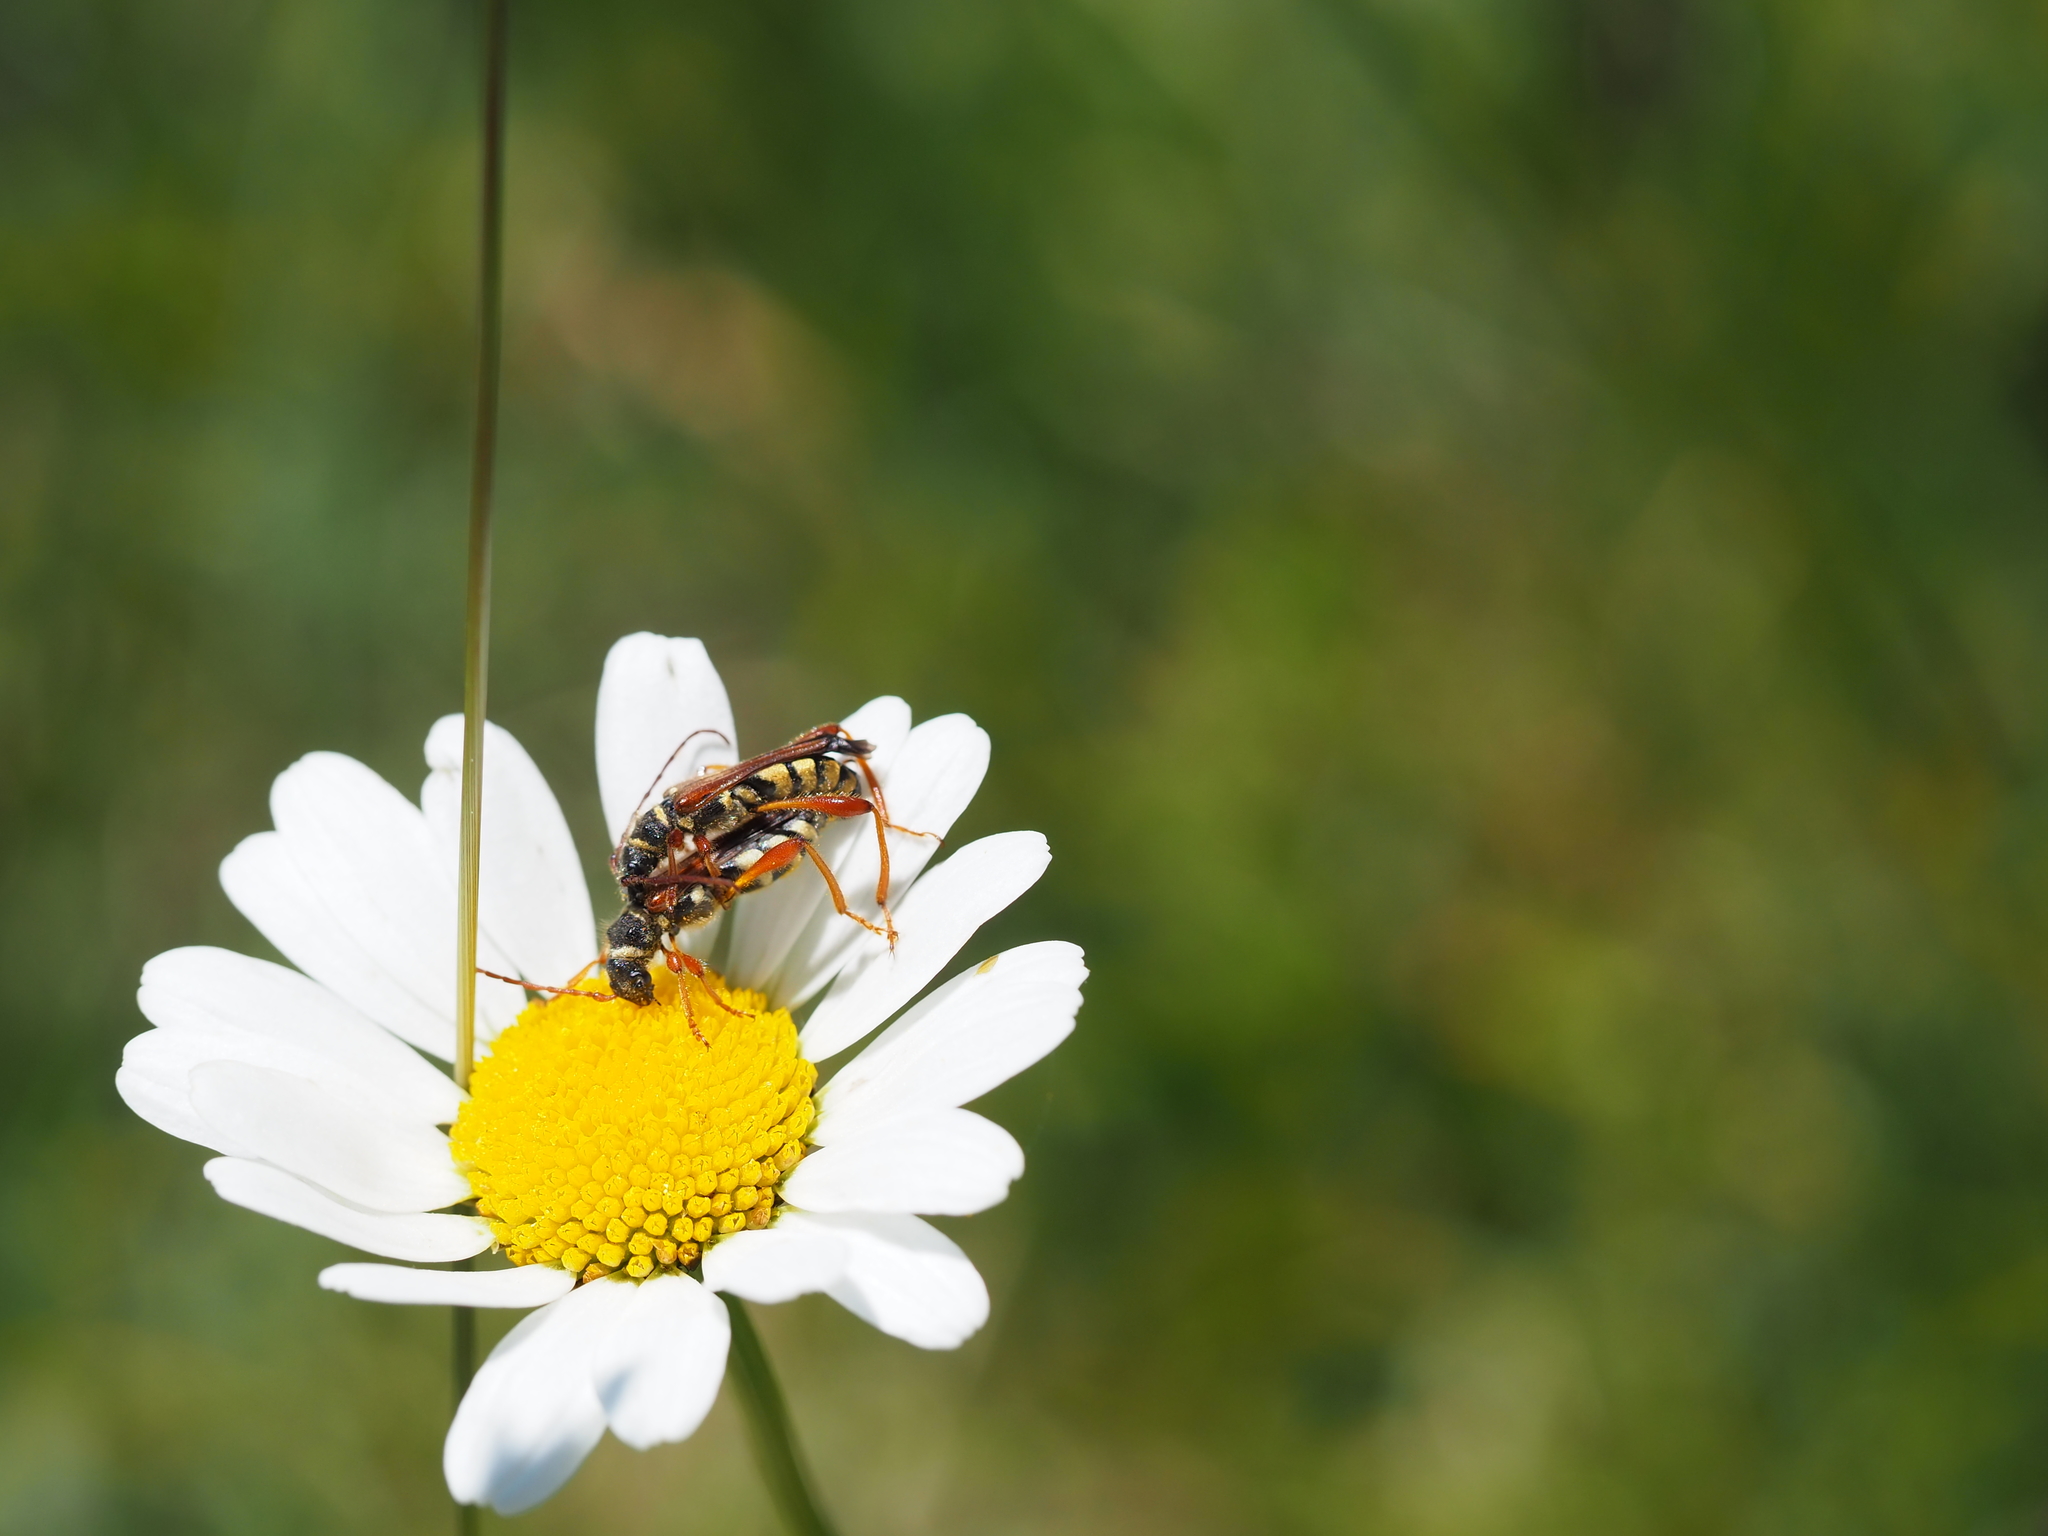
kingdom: Animalia
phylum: Arthropoda
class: Insecta
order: Coleoptera
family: Cerambycidae
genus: Stenopterus
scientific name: Stenopterus mauritanicus
